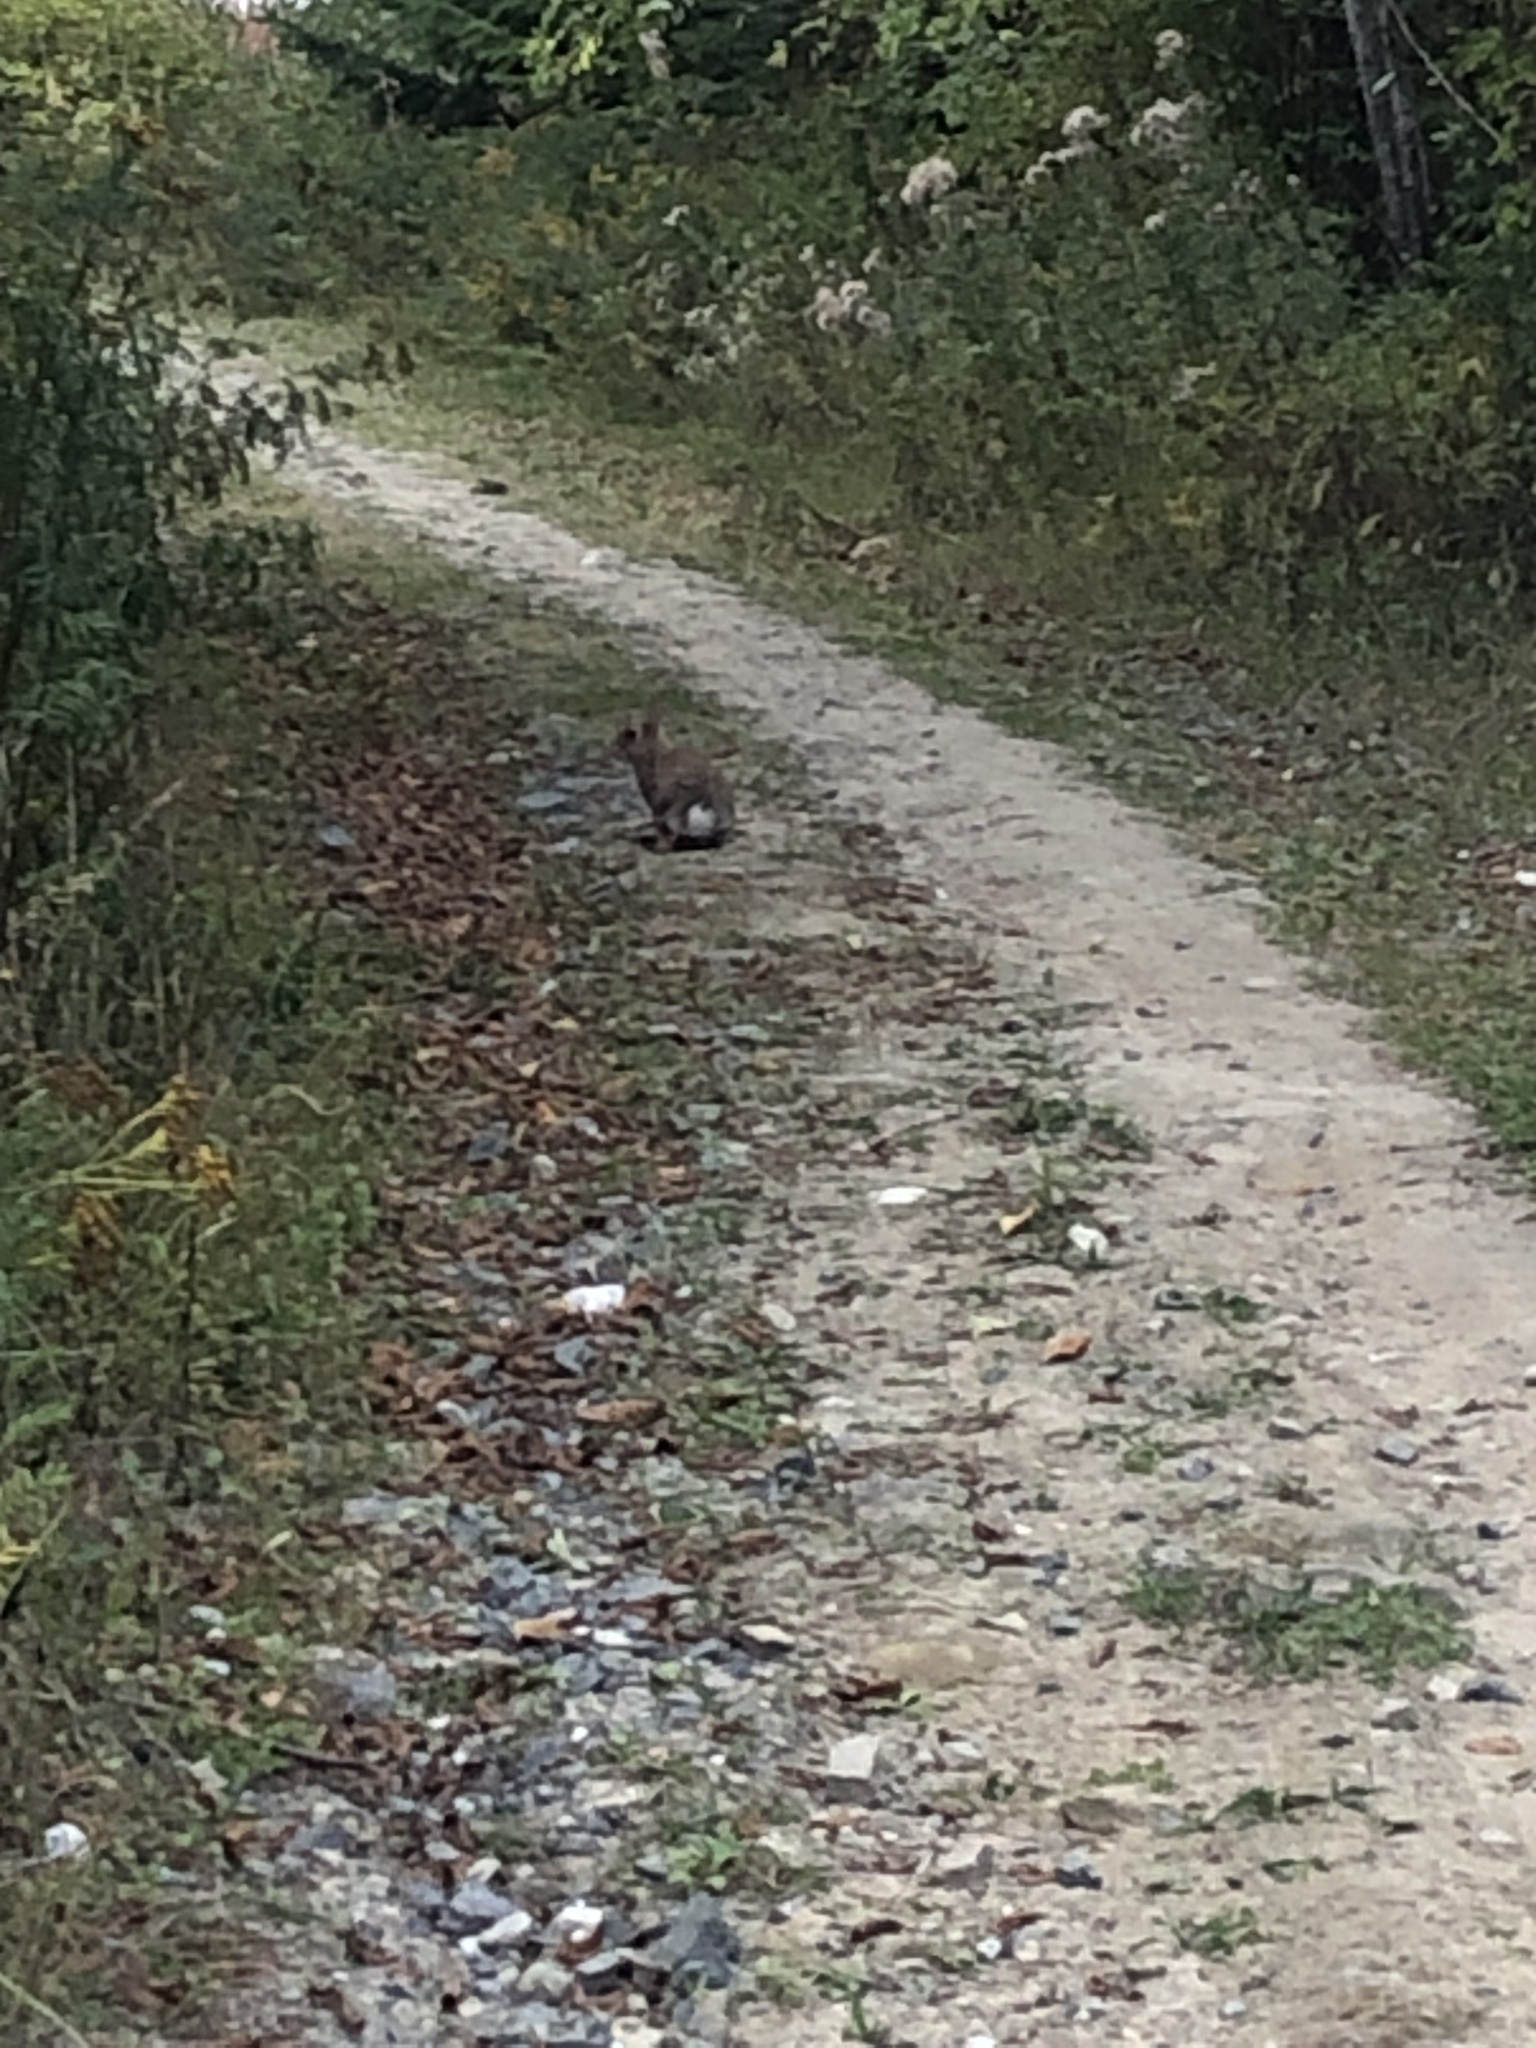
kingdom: Animalia
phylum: Chordata
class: Mammalia
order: Lagomorpha
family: Leporidae
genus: Sylvilagus
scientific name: Sylvilagus floridanus
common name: Eastern cottontail
